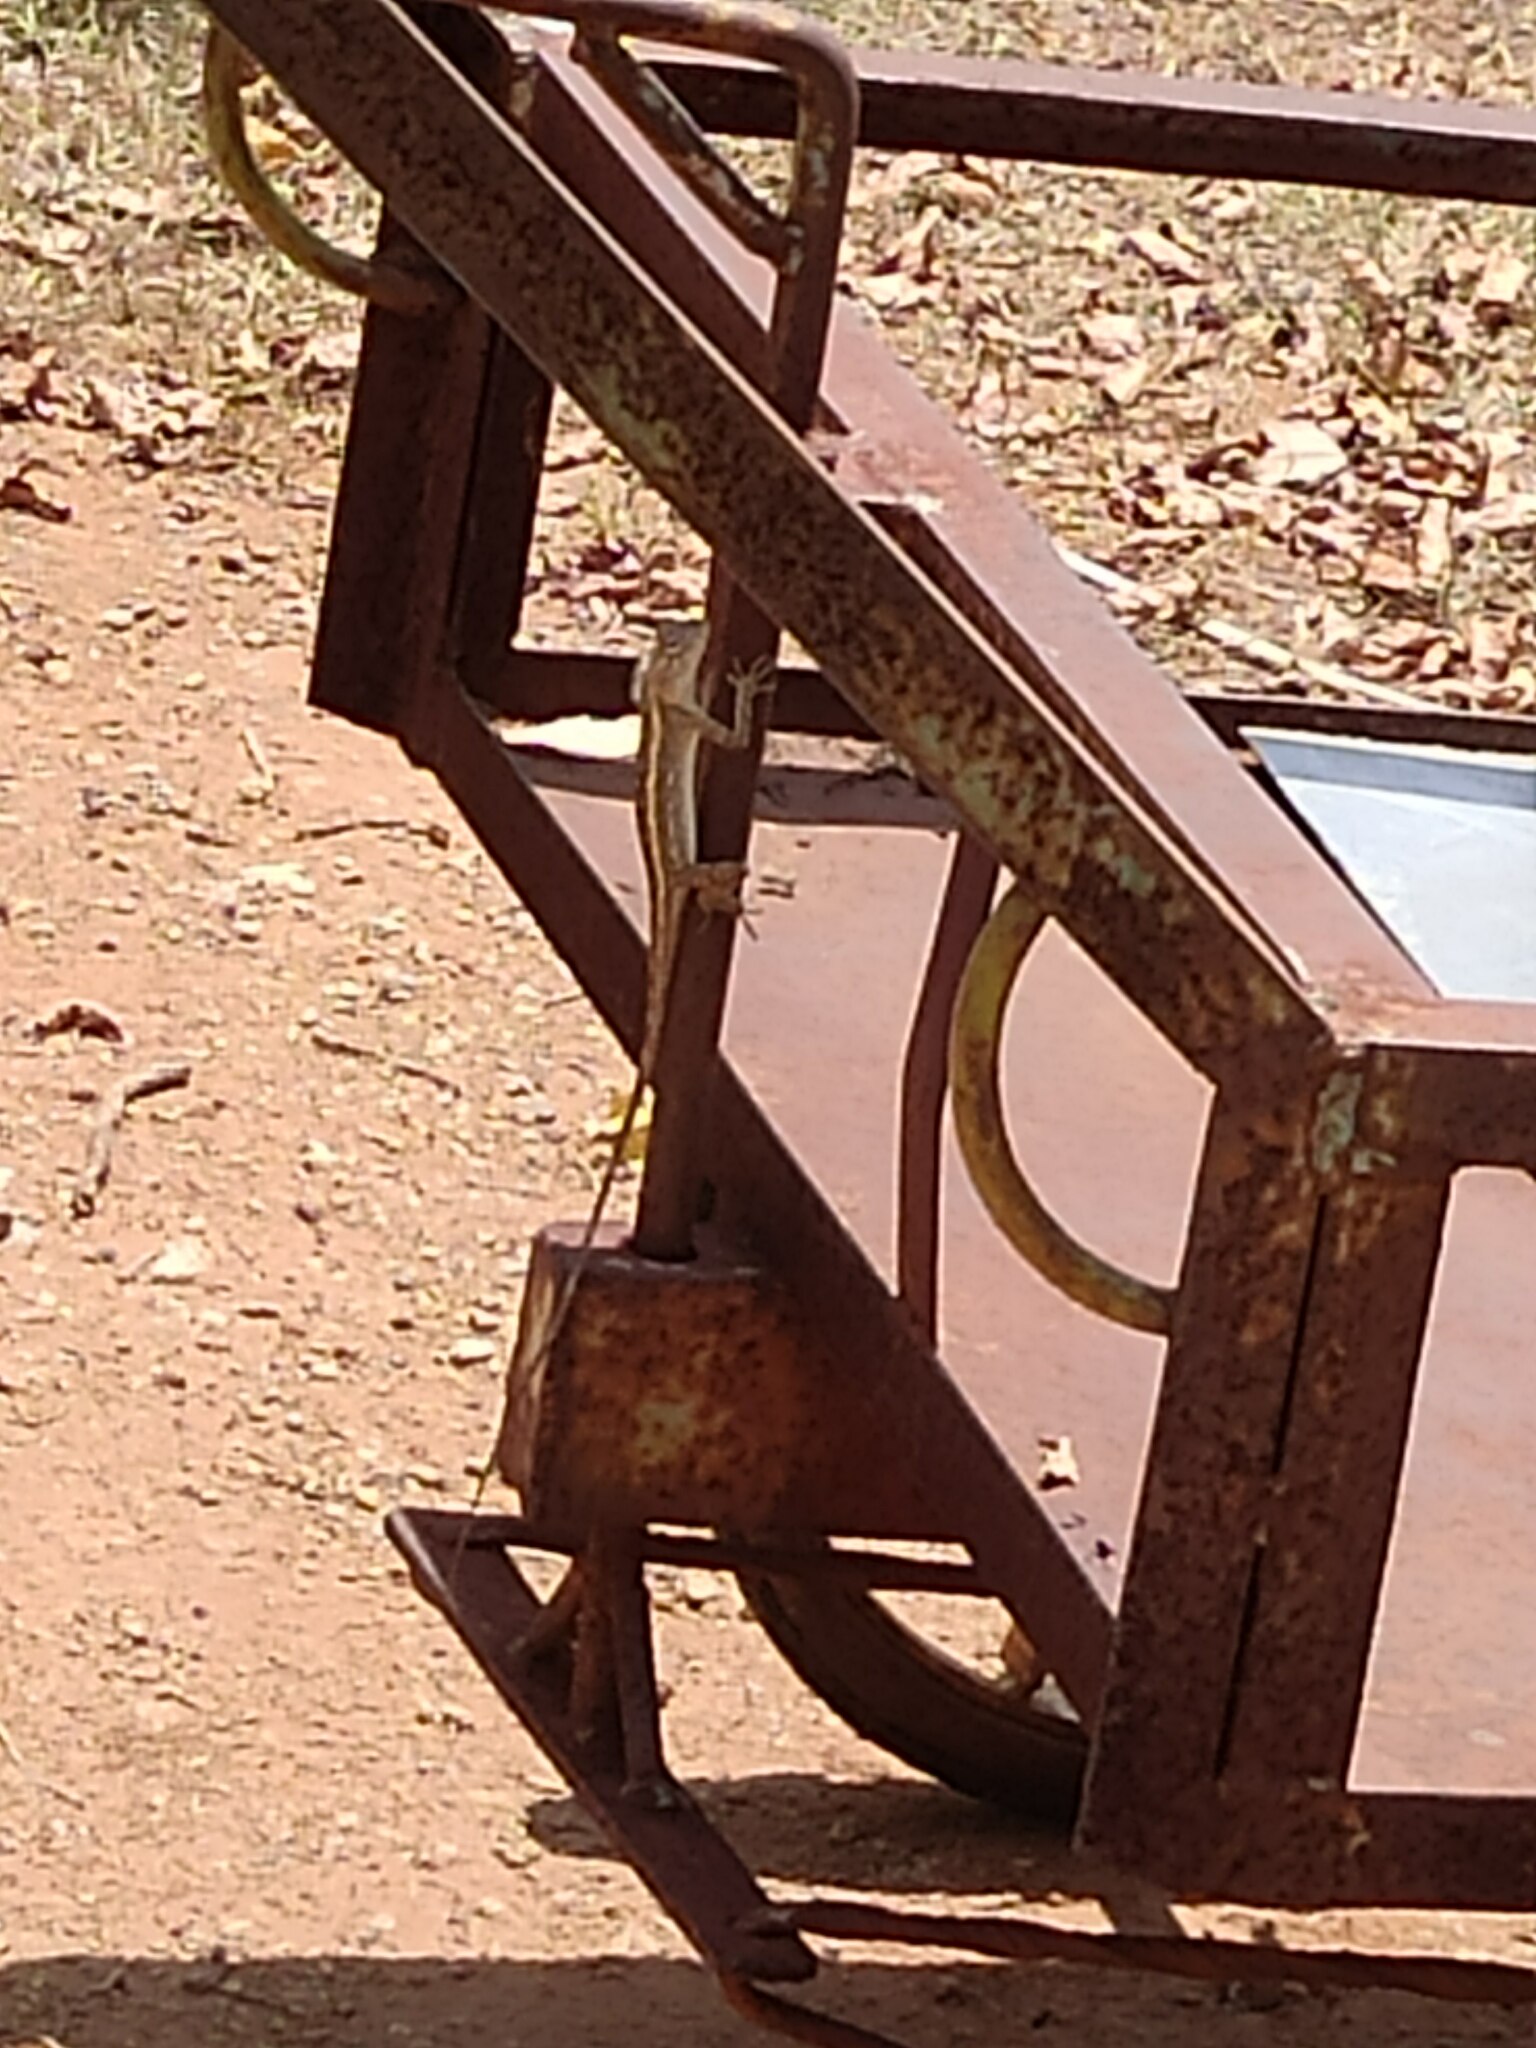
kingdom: Animalia
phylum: Chordata
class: Squamata
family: Agamidae
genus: Calotes
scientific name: Calotes versicolor
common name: Oriental garden lizard
